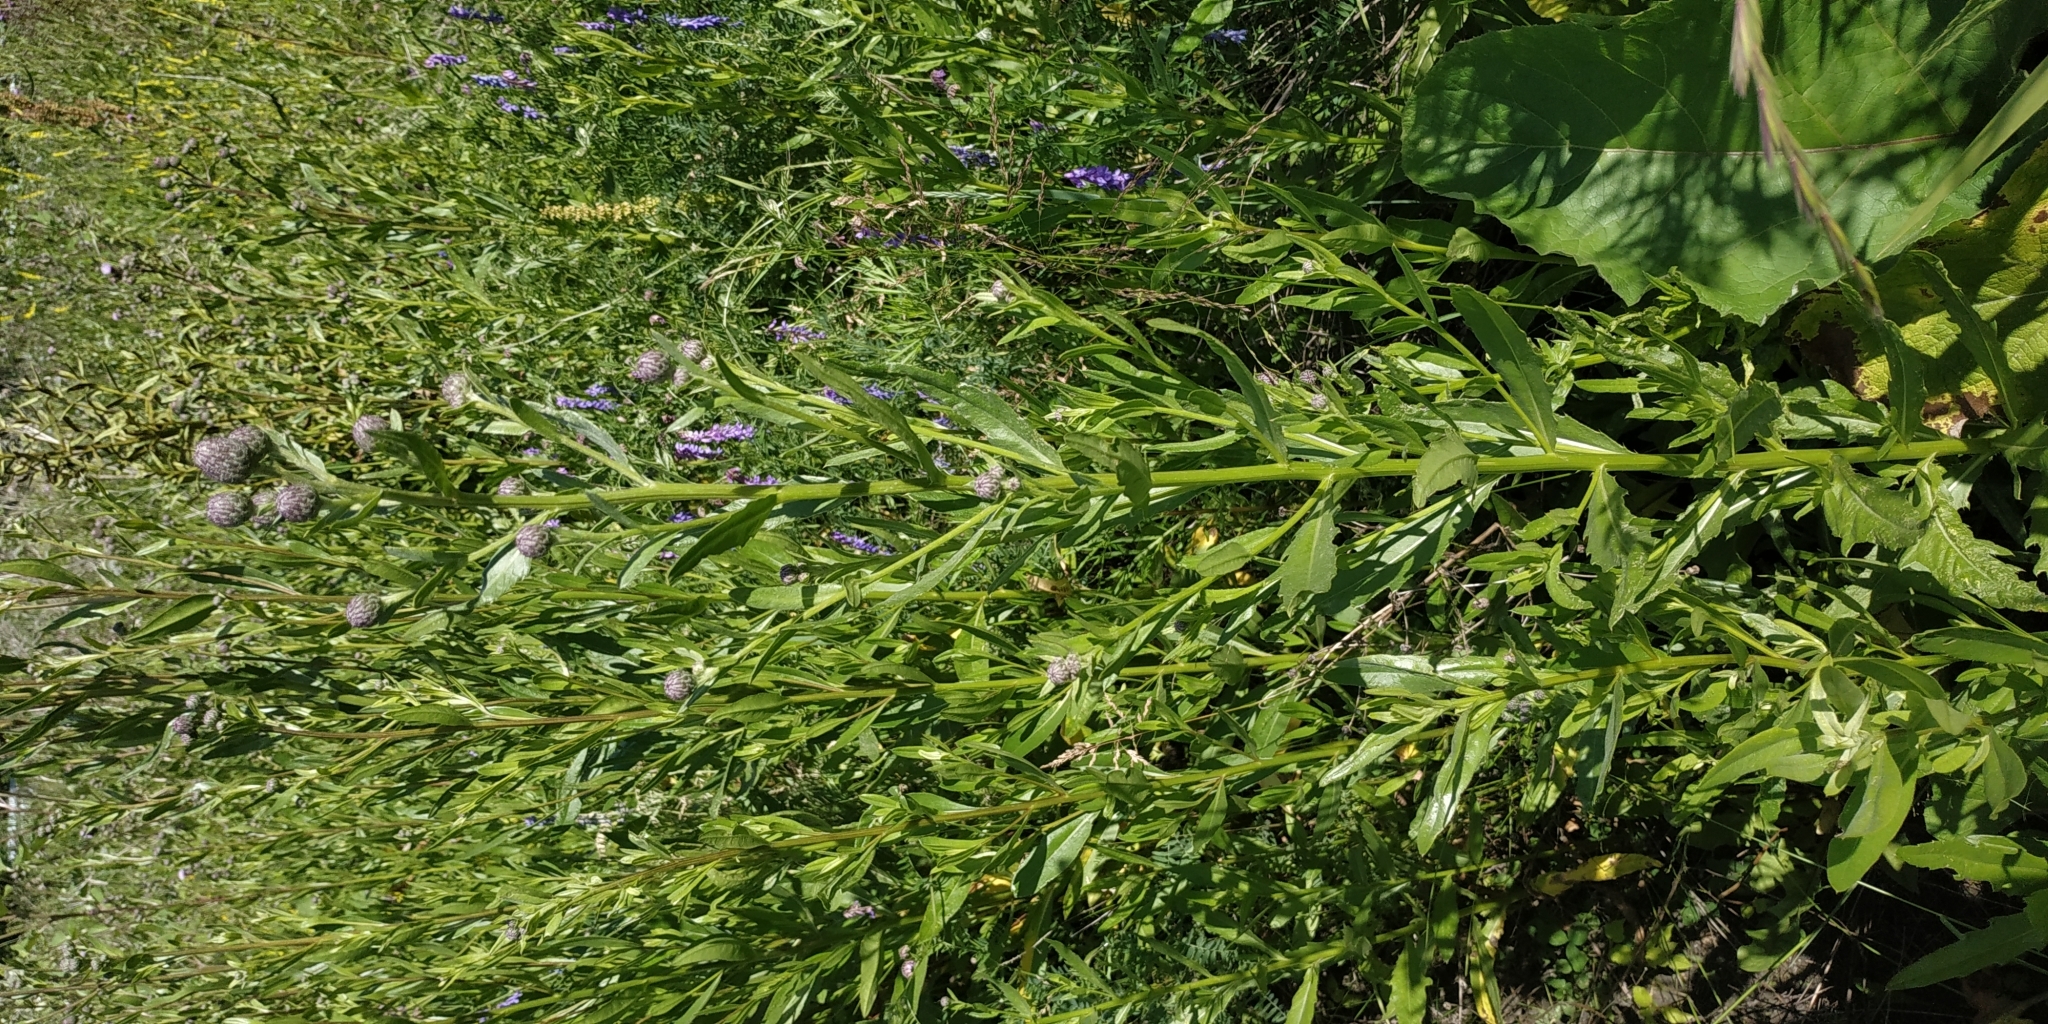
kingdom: Plantae
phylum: Tracheophyta
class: Magnoliopsida
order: Asterales
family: Asteraceae
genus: Cirsium
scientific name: Cirsium arvense
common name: Creeping thistle
